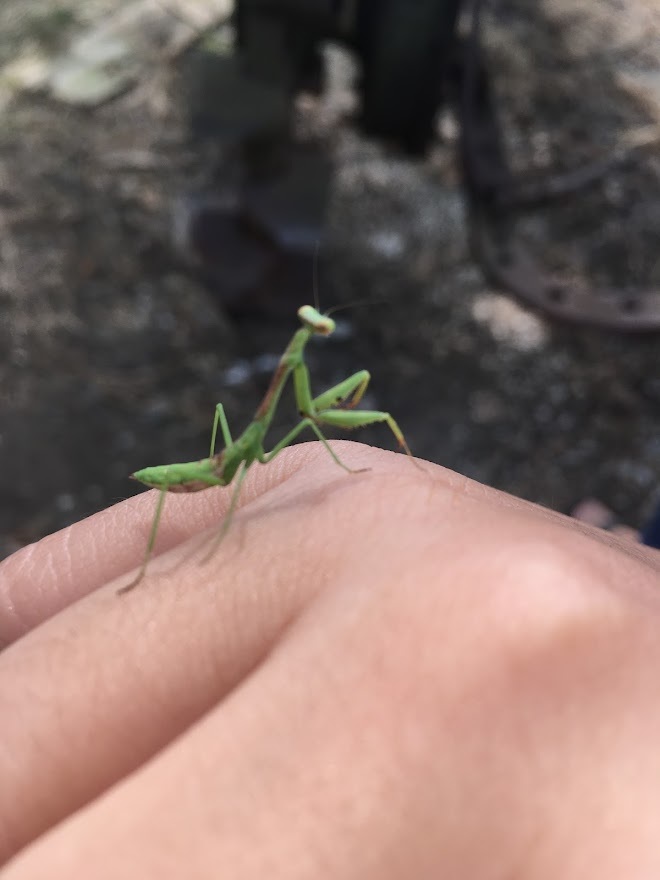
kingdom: Animalia
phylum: Arthropoda
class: Insecta
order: Mantodea
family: Mantidae
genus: Stagmomantis
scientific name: Stagmomantis carolina
